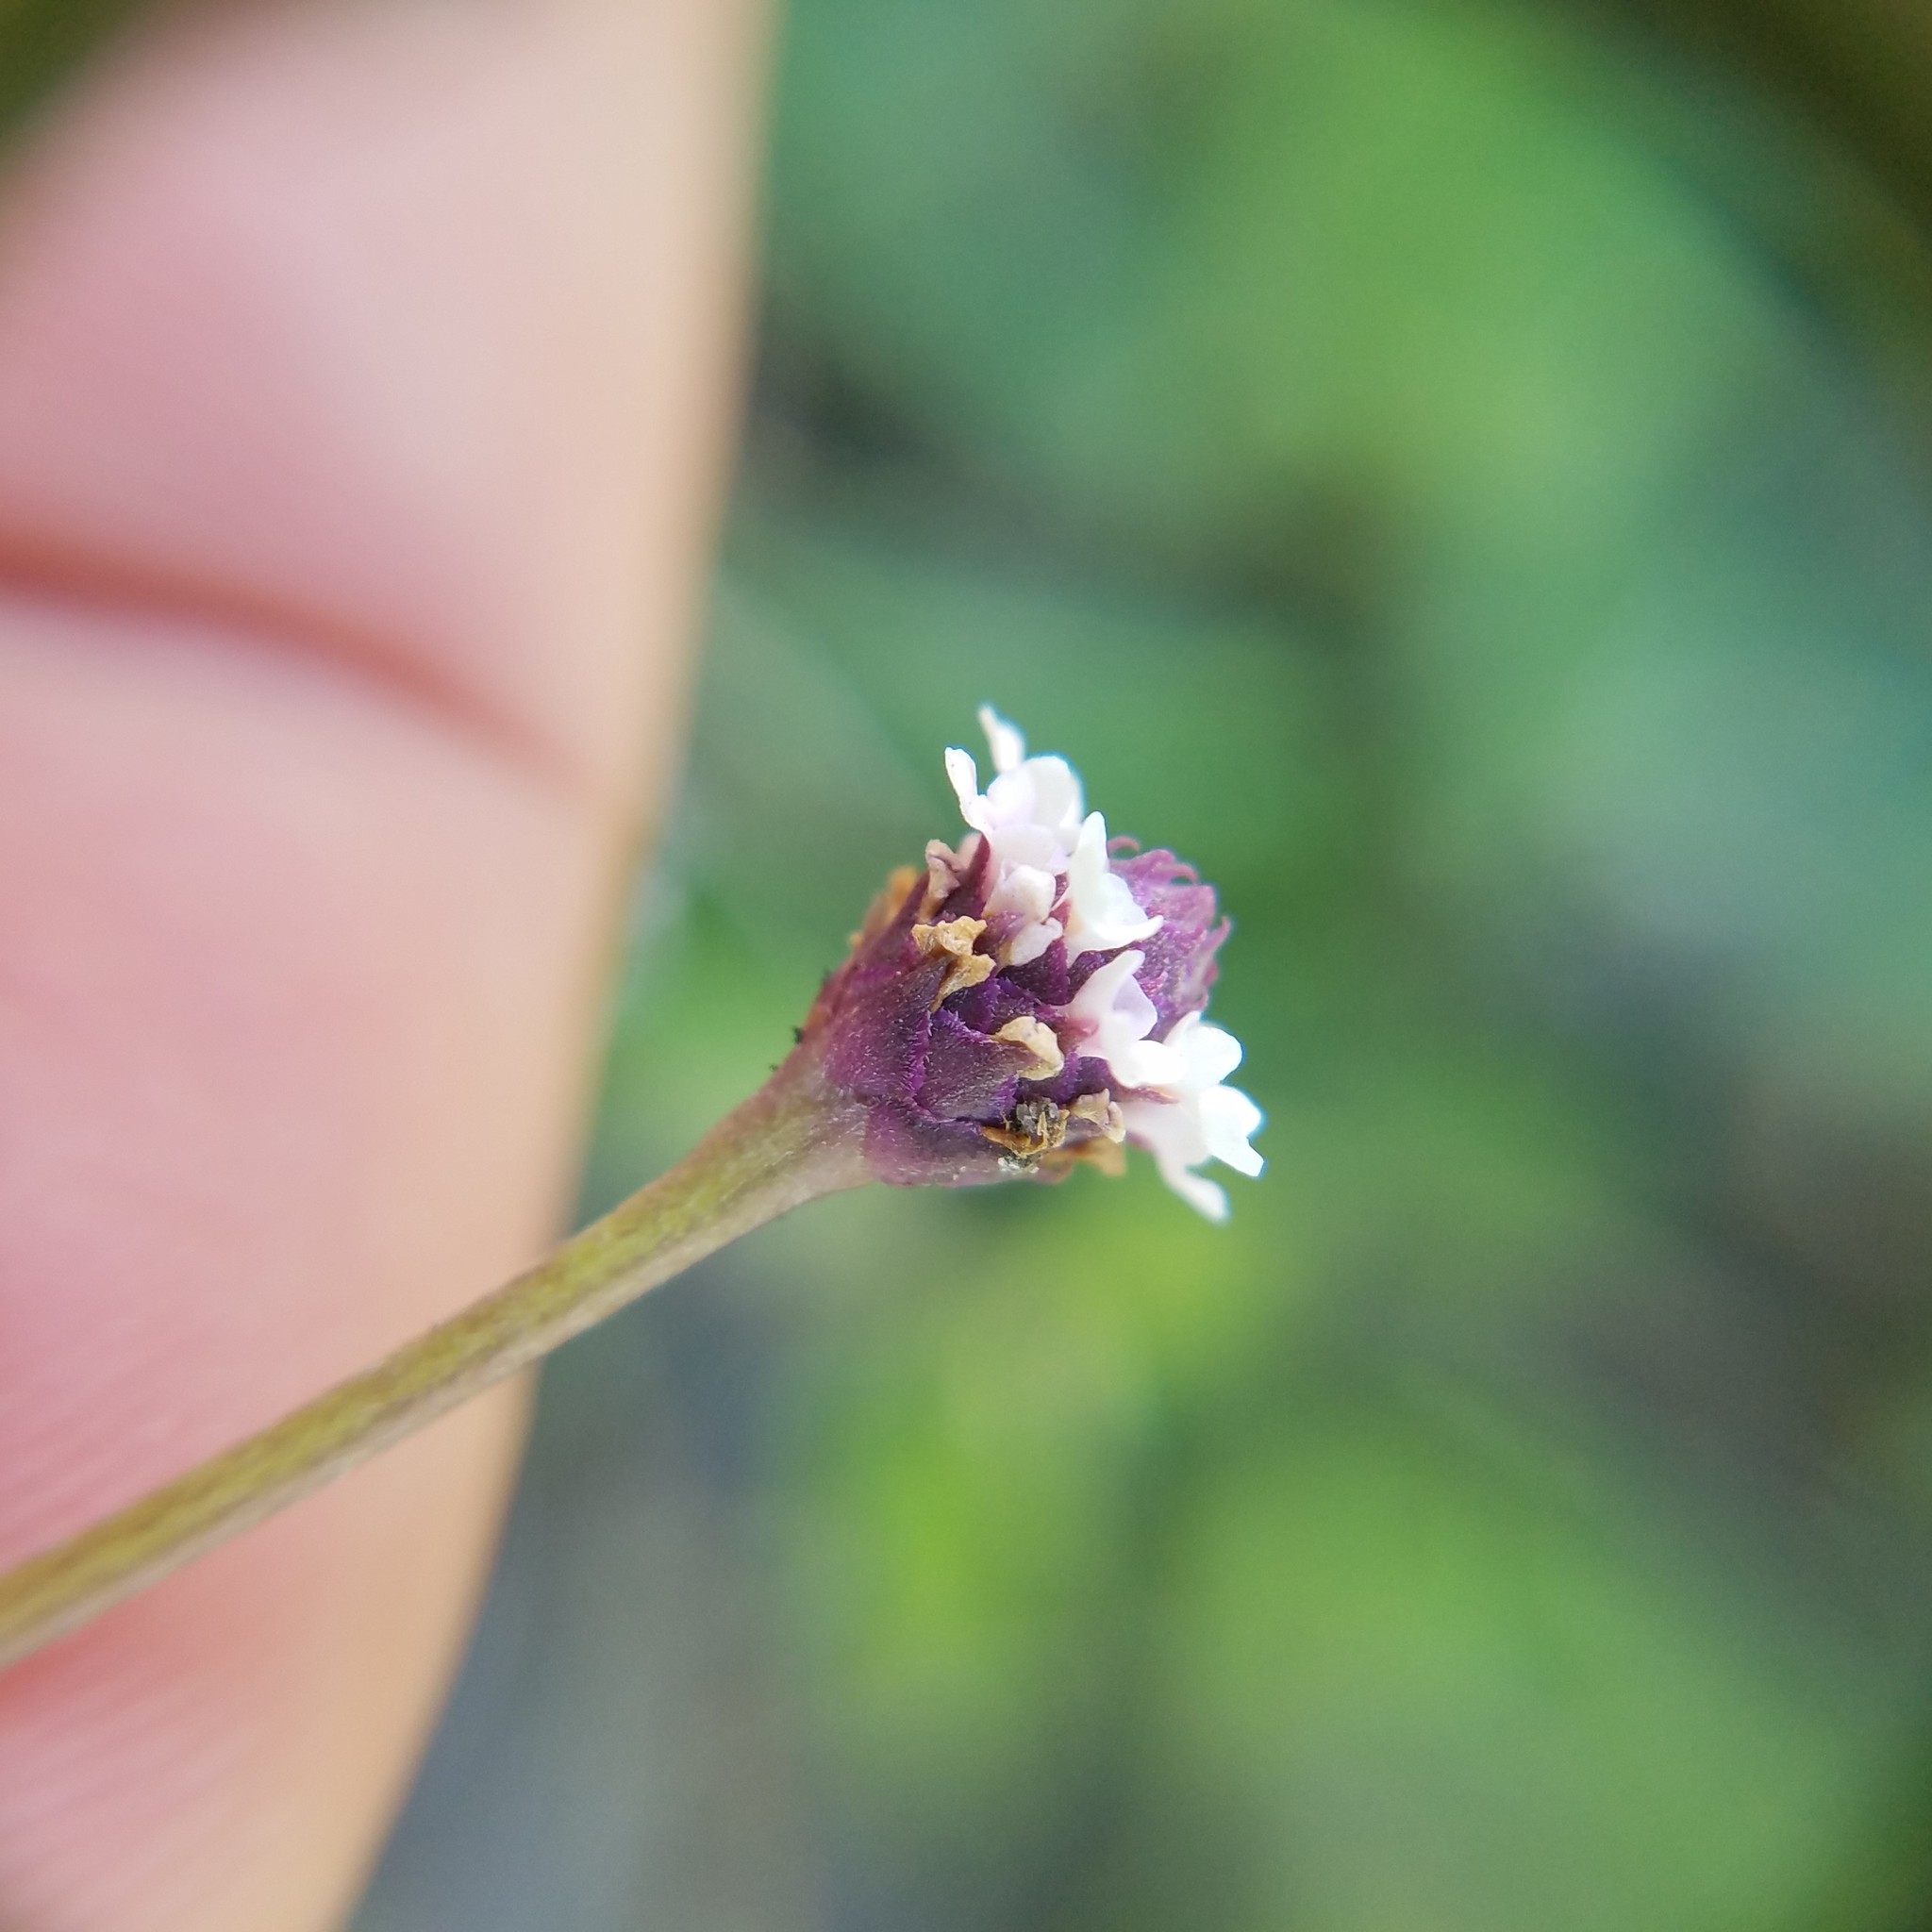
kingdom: Plantae
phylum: Tracheophyta
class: Magnoliopsida
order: Lamiales
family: Verbenaceae
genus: Phyla
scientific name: Phyla nodiflora
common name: Frogfruit
